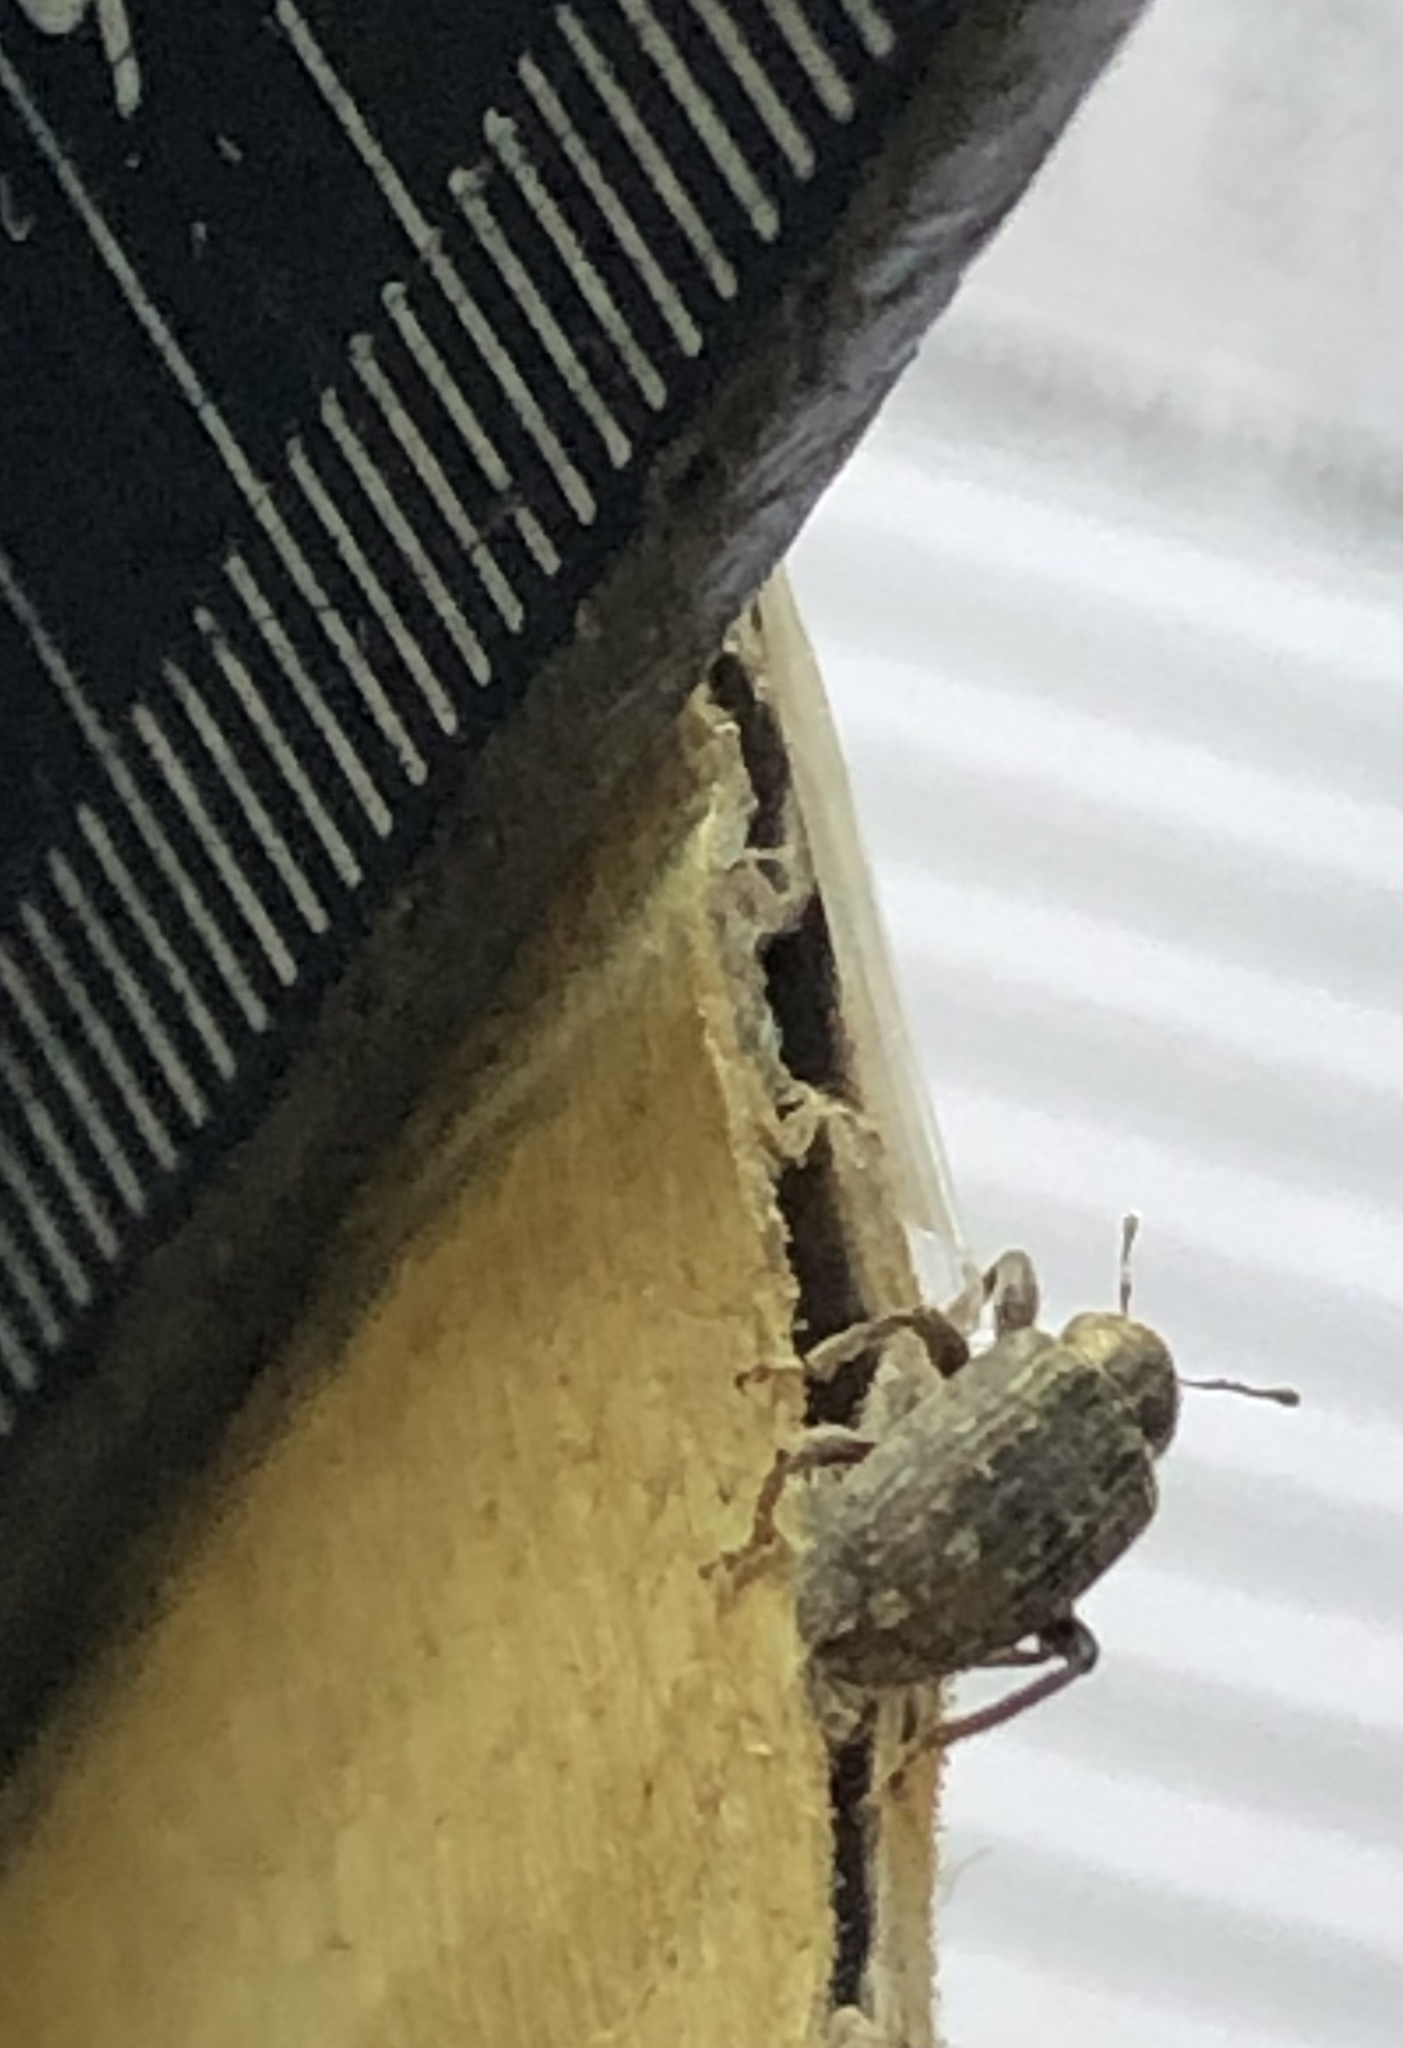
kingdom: Animalia
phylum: Arthropoda
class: Insecta
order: Coleoptera
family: Curculionidae
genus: Hypera
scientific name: Hypera postica
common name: Weevil
